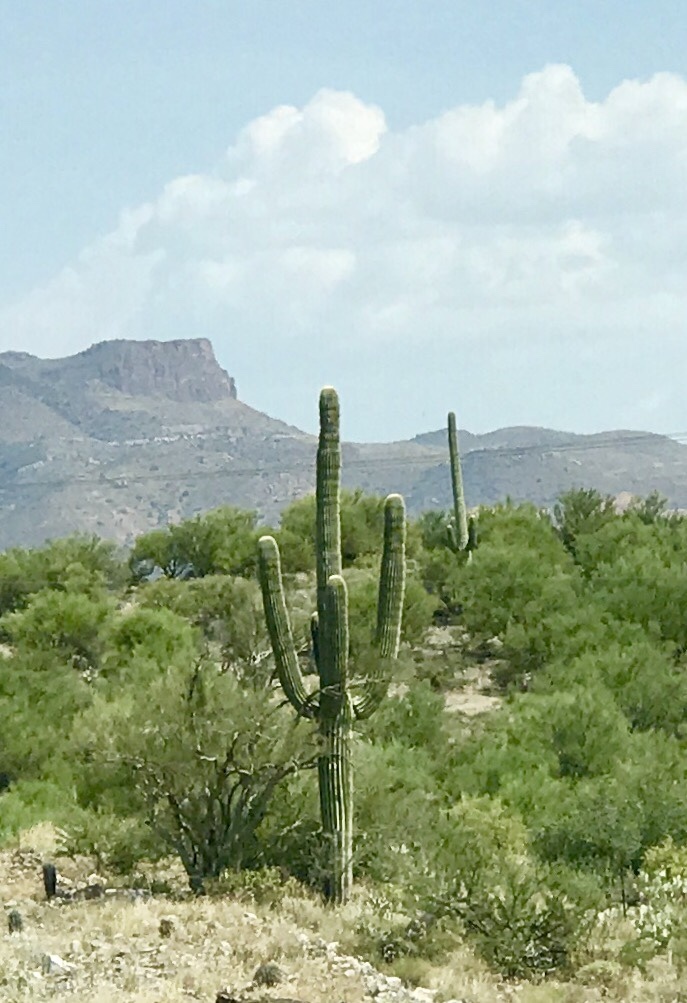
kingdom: Plantae
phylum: Tracheophyta
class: Magnoliopsida
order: Caryophyllales
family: Cactaceae
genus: Carnegiea
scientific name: Carnegiea gigantea
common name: Saguaro
